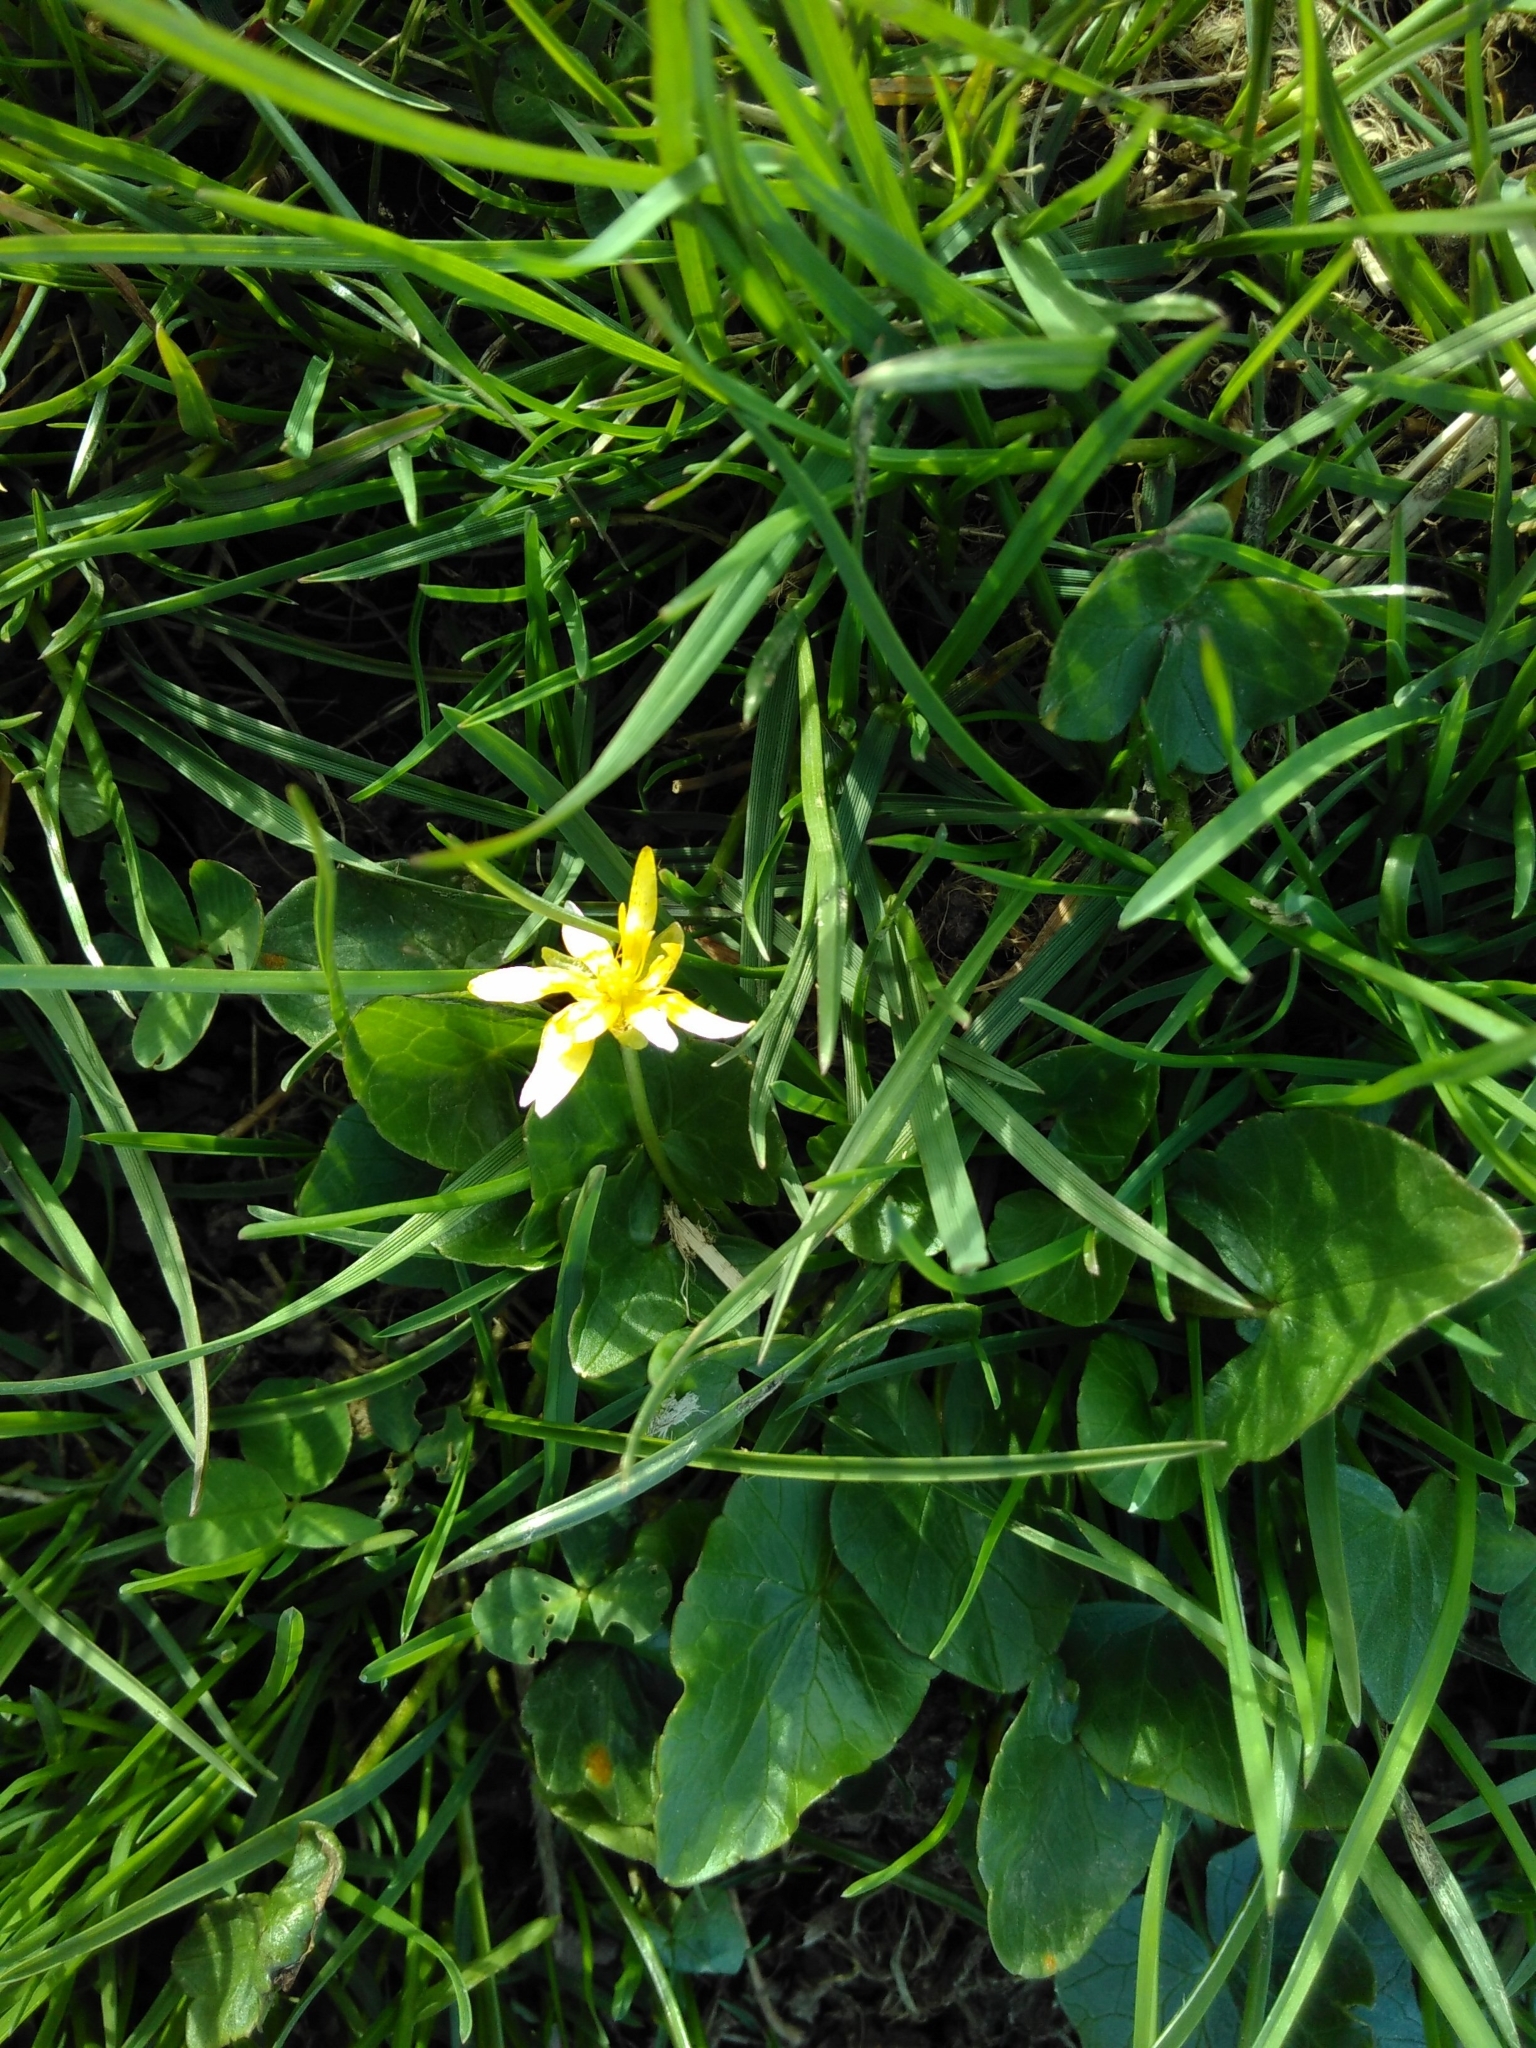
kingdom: Plantae
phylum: Tracheophyta
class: Magnoliopsida
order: Ranunculales
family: Ranunculaceae
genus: Ficaria
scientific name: Ficaria verna
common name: Lesser celandine
